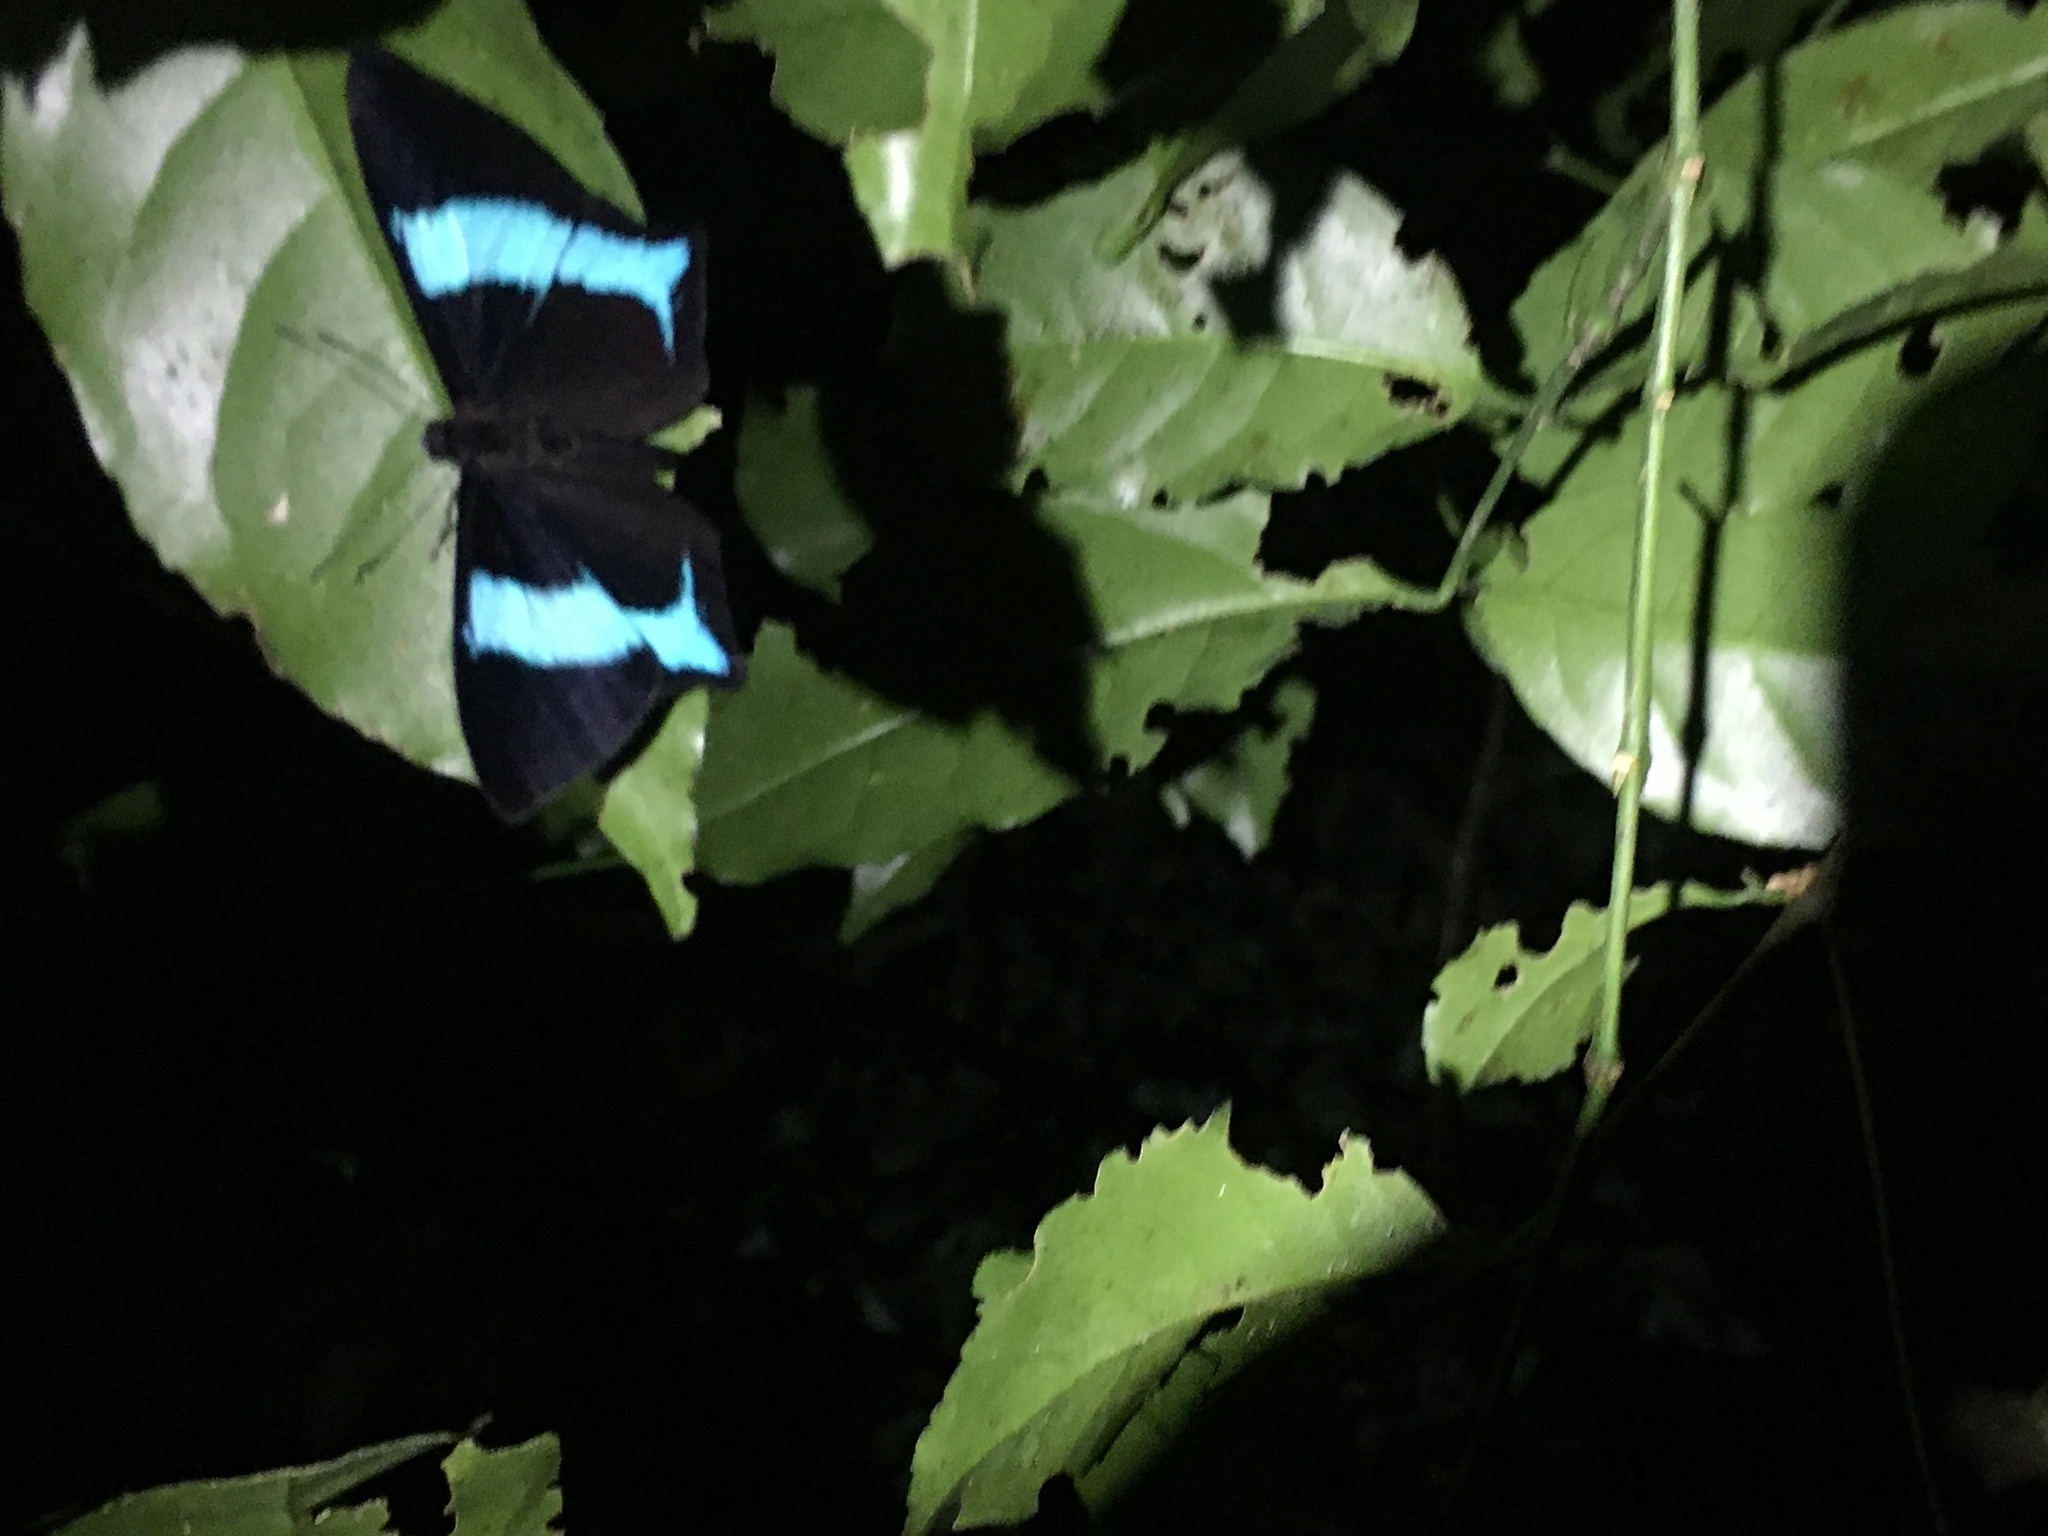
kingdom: Animalia
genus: Mesosemia
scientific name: Mesosemia grandis
